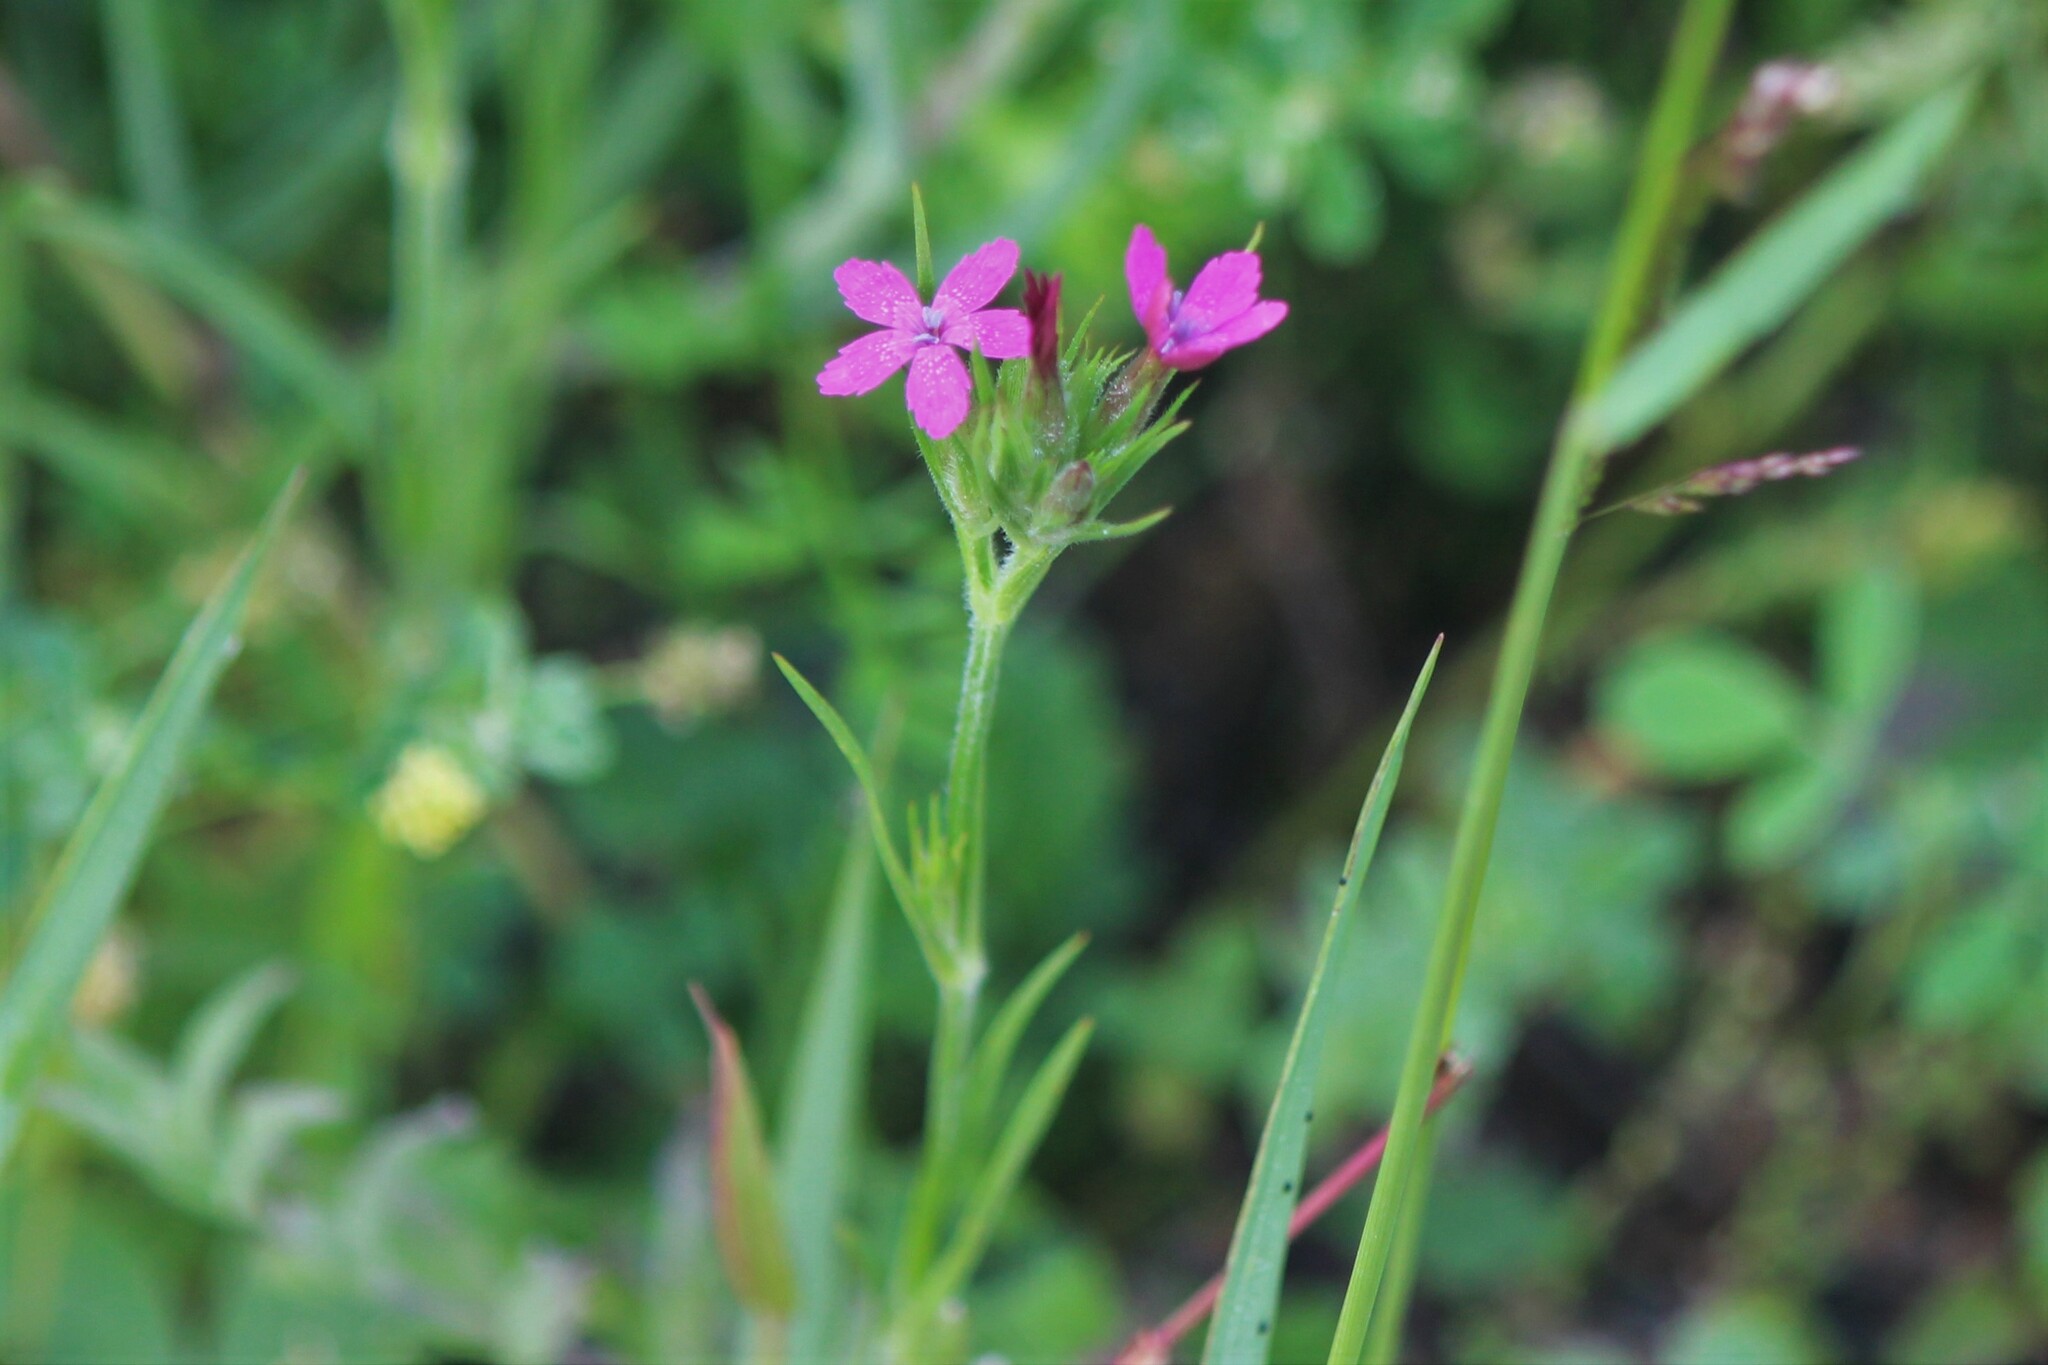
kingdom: Plantae
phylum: Tracheophyta
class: Magnoliopsida
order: Caryophyllales
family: Caryophyllaceae
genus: Dianthus
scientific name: Dianthus armeria
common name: Deptford pink
